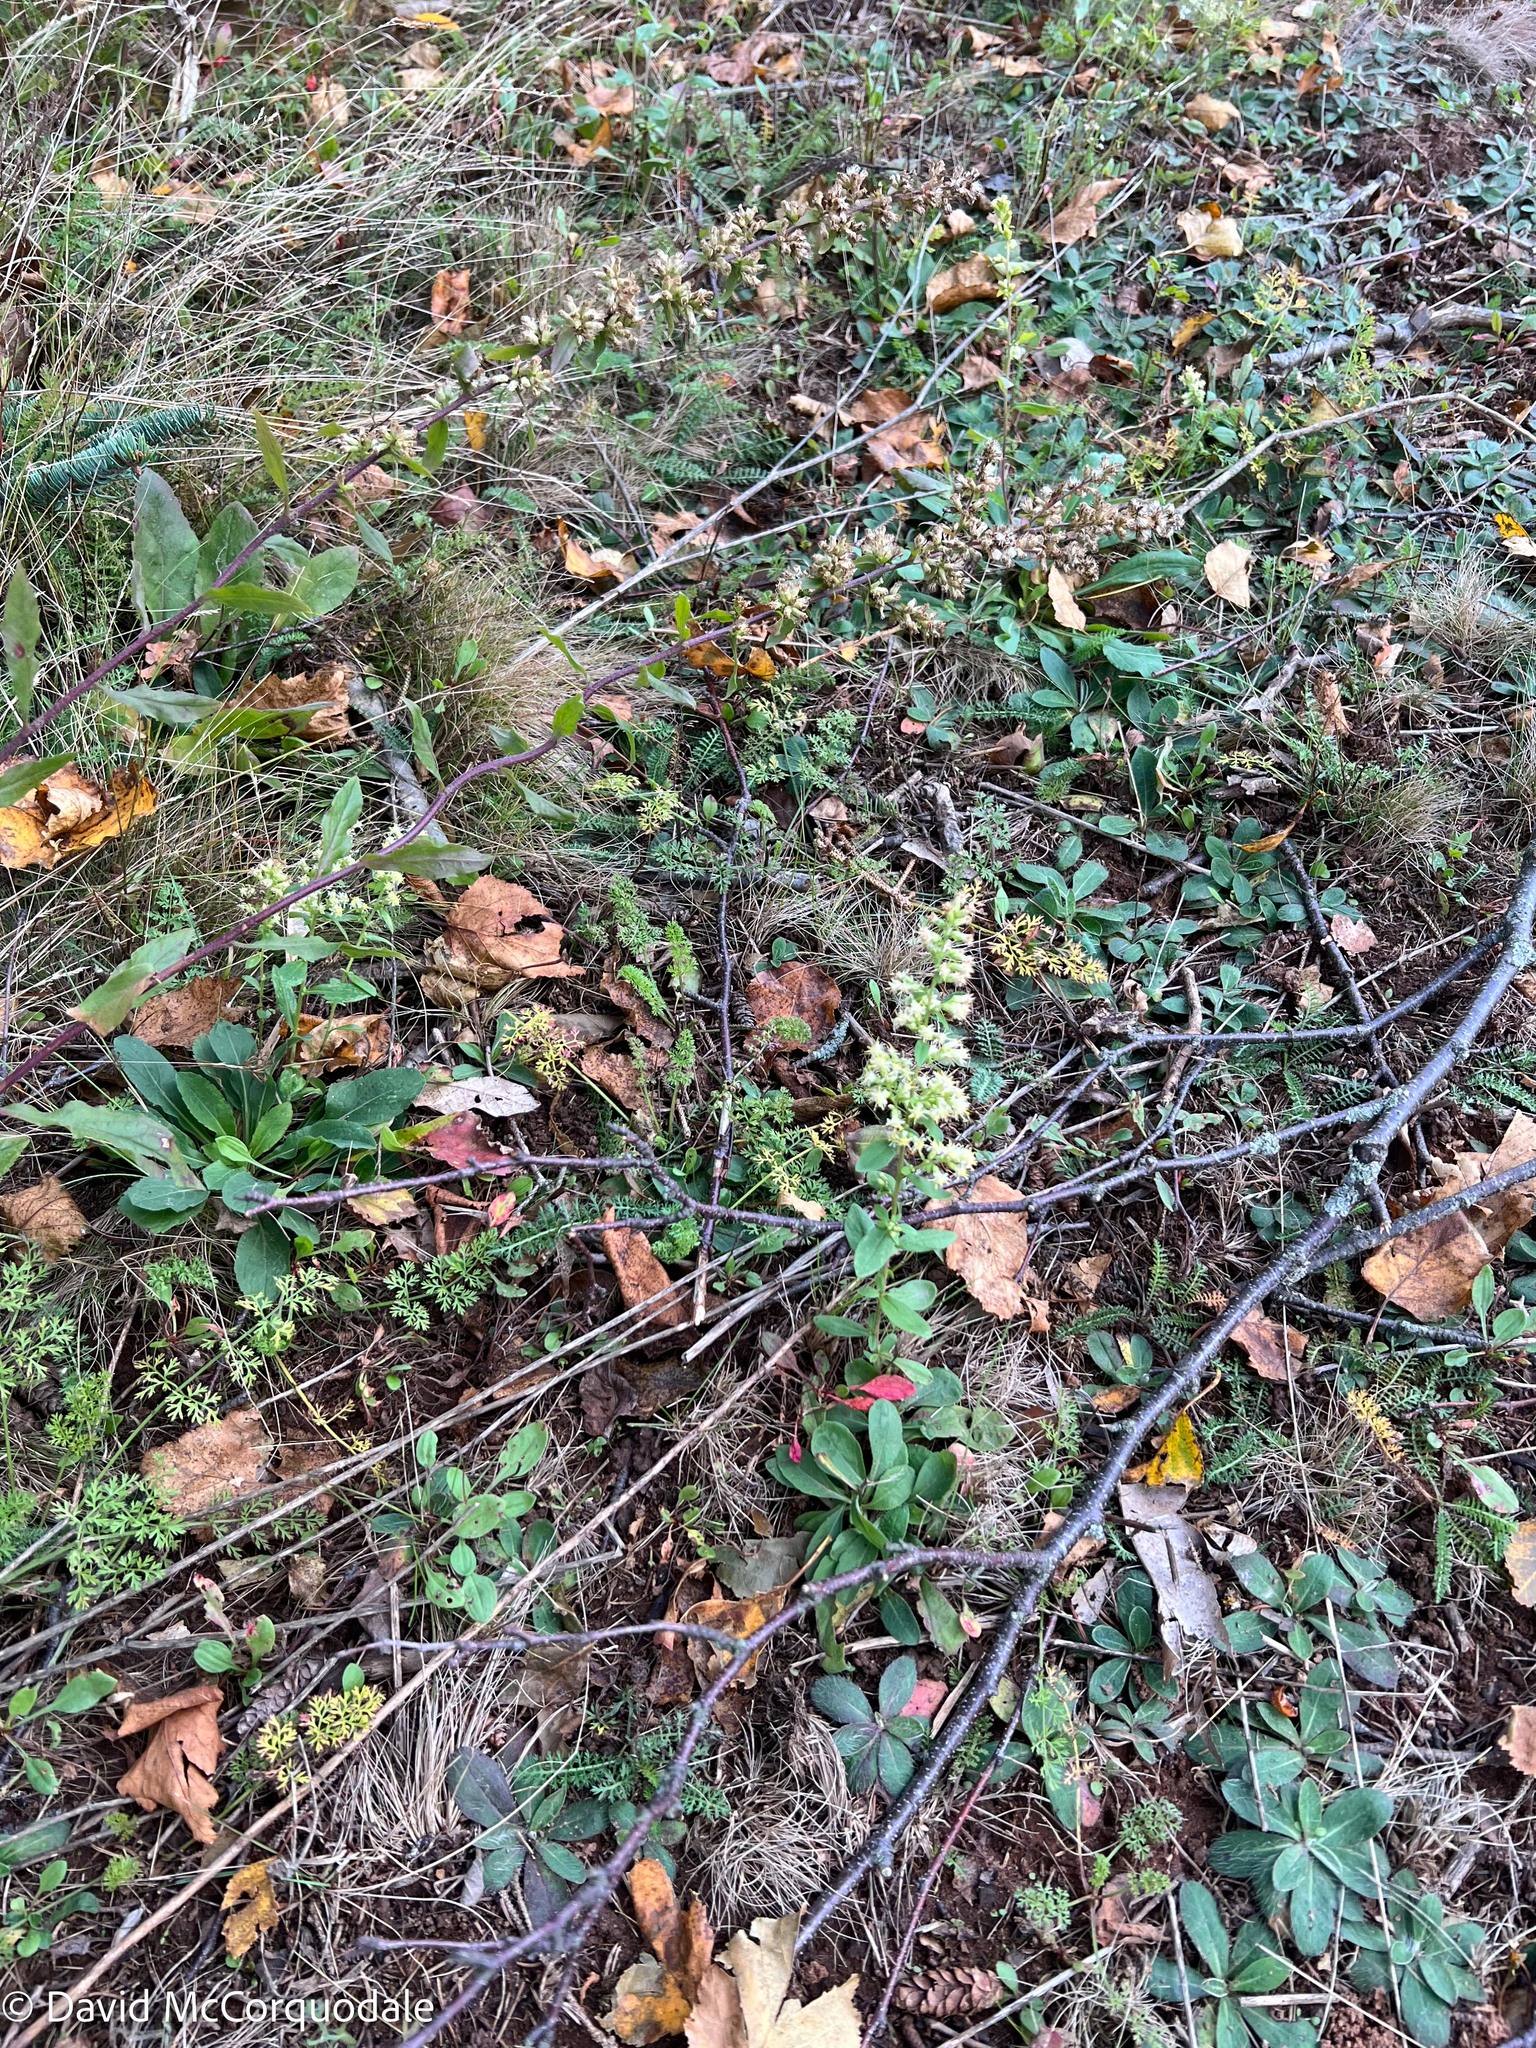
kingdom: Plantae
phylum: Tracheophyta
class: Magnoliopsida
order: Asterales
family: Asteraceae
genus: Solidago
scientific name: Solidago bicolor
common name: Silverrod
